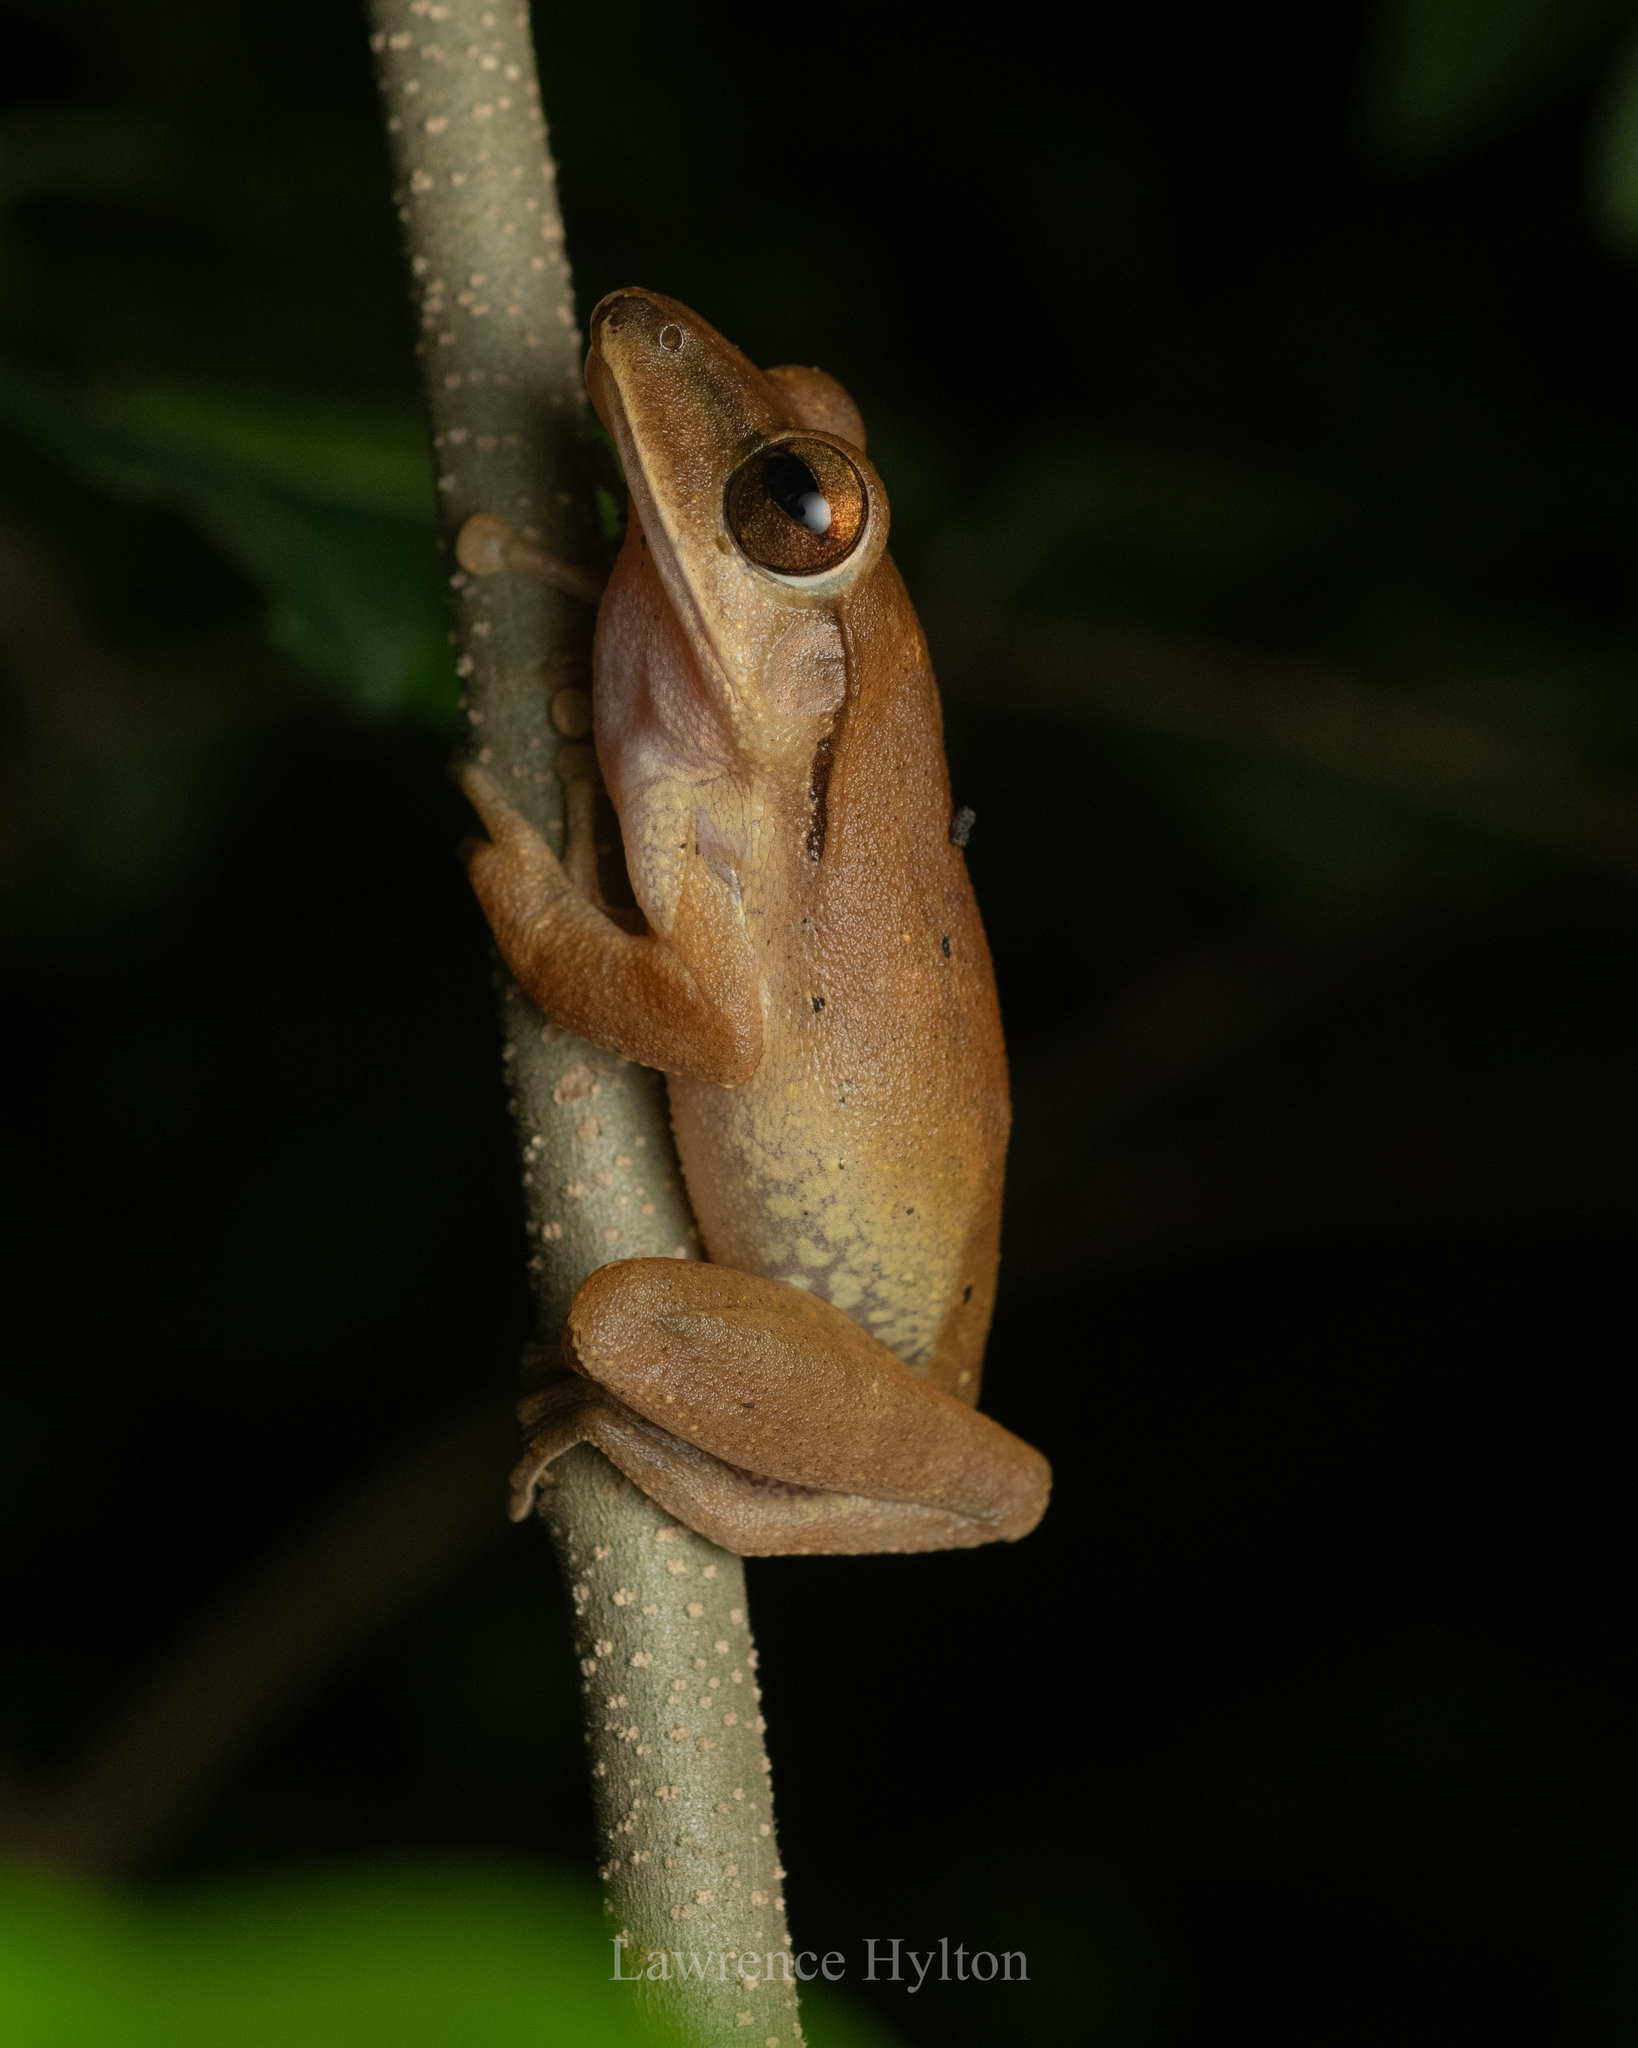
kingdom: Animalia
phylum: Chordata
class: Amphibia
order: Anura
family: Rhacophoridae
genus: Polypedates
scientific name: Polypedates megacephalus
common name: Hong kong whipping frog
